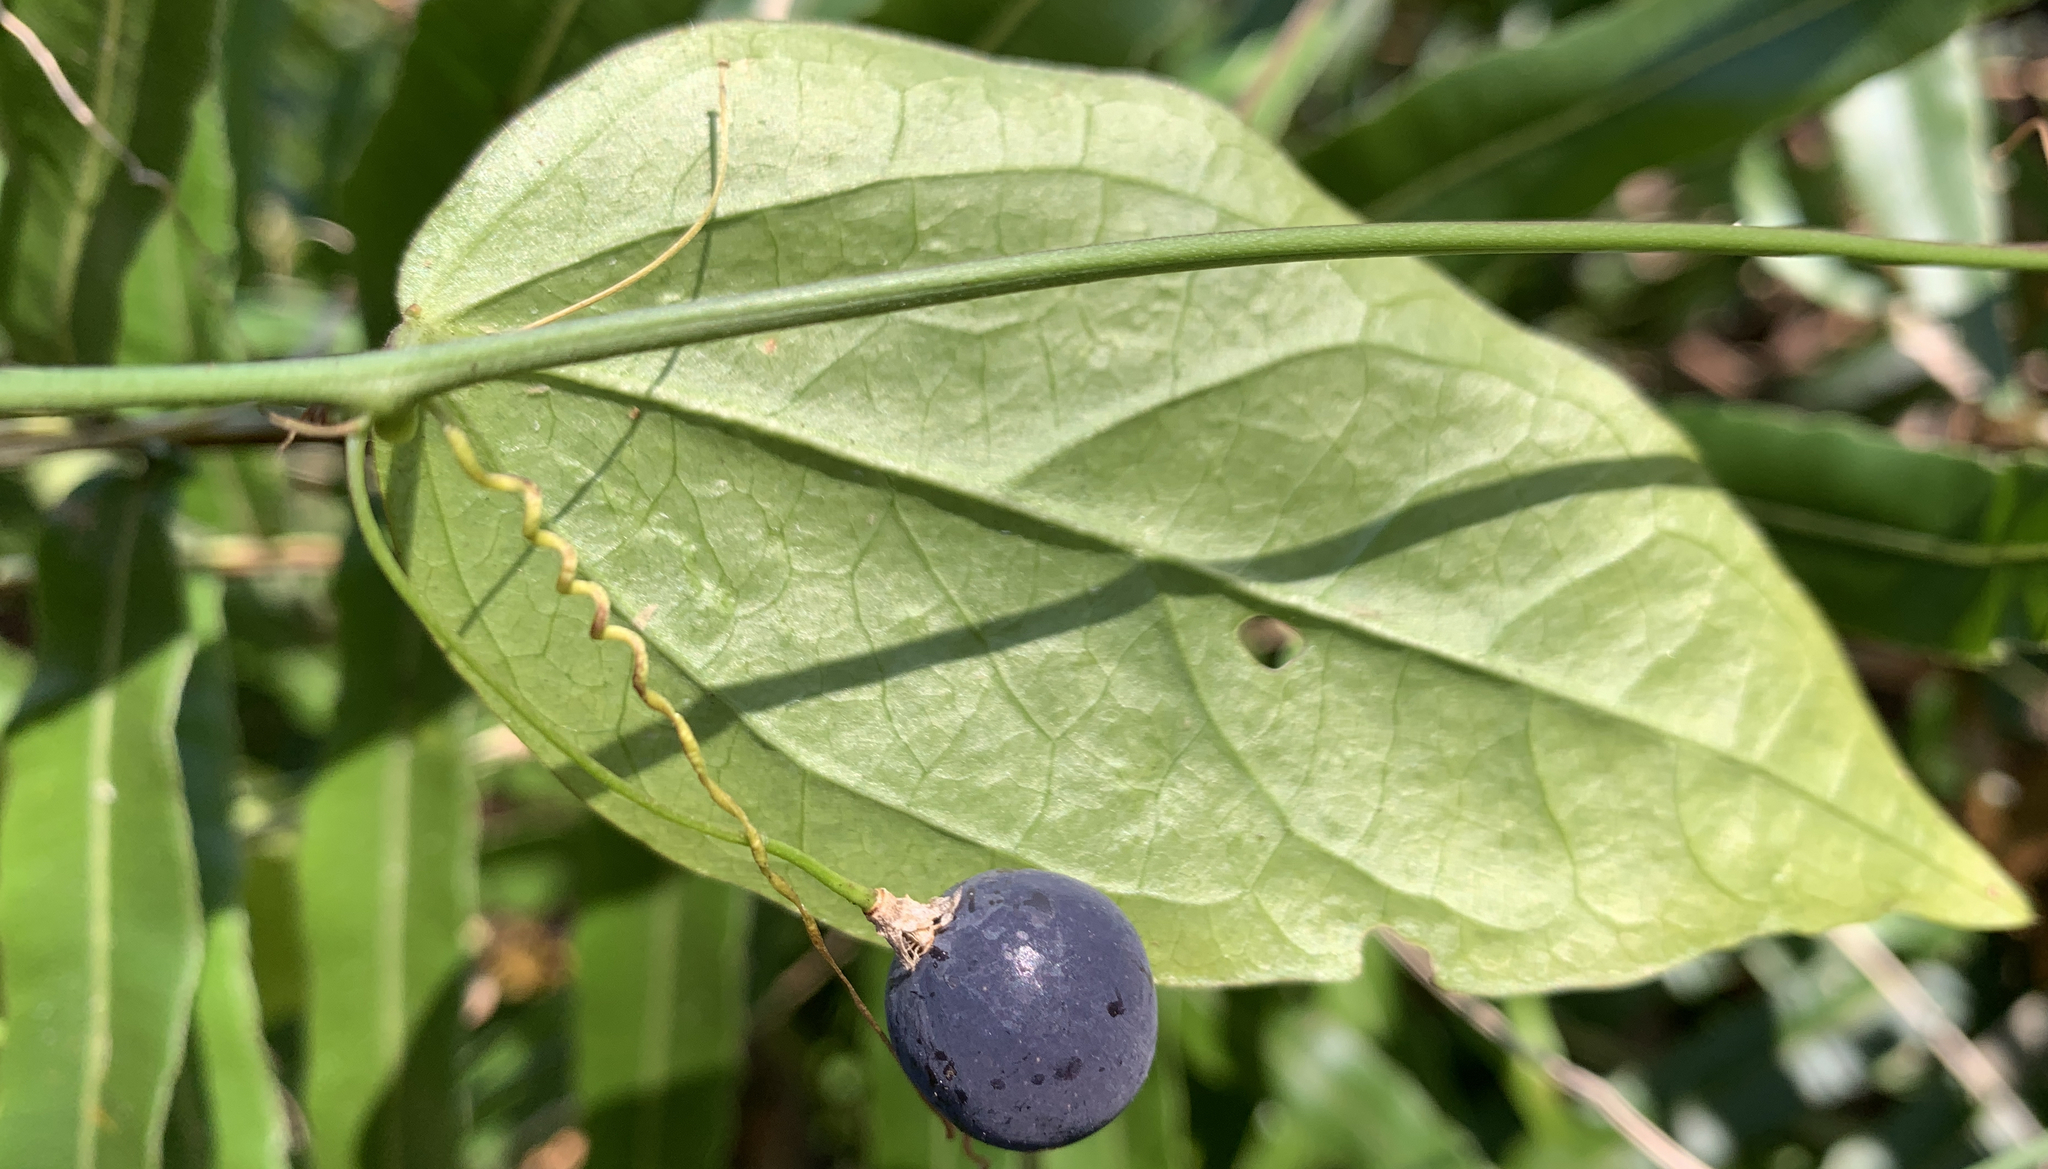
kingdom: Plantae
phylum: Tracheophyta
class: Magnoliopsida
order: Malpighiales
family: Passifloraceae
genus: Passiflora
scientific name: Passiflora pallida
